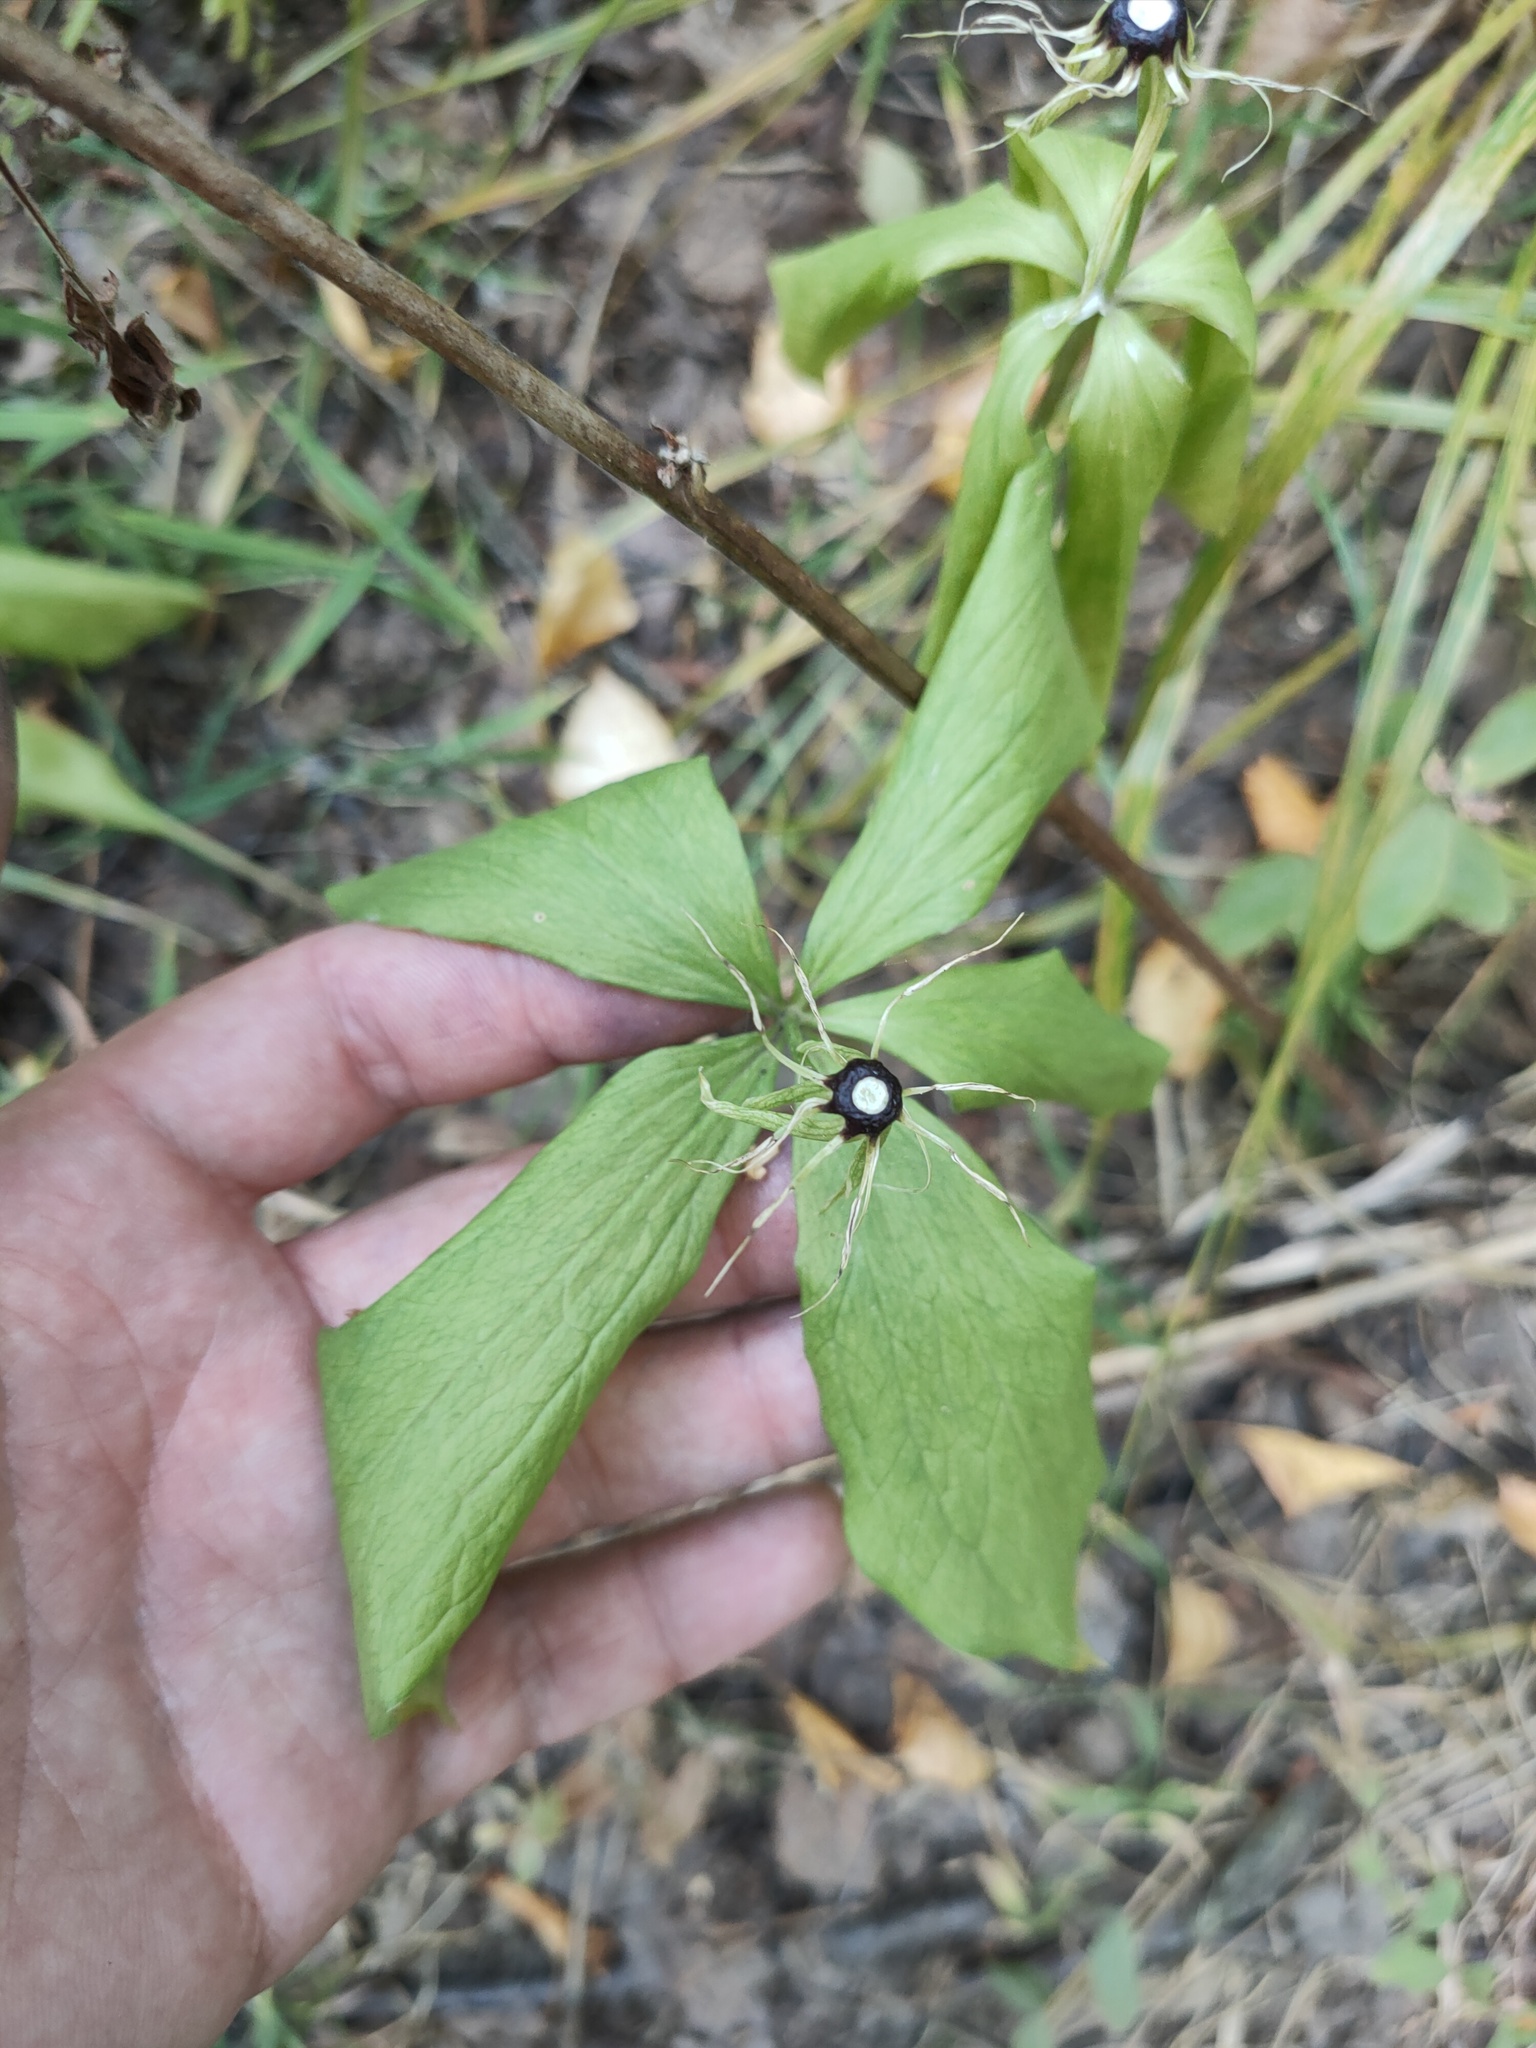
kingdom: Plantae
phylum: Tracheophyta
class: Liliopsida
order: Liliales
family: Melanthiaceae
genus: Paris
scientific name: Paris quadrifolia
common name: Herb-paris
